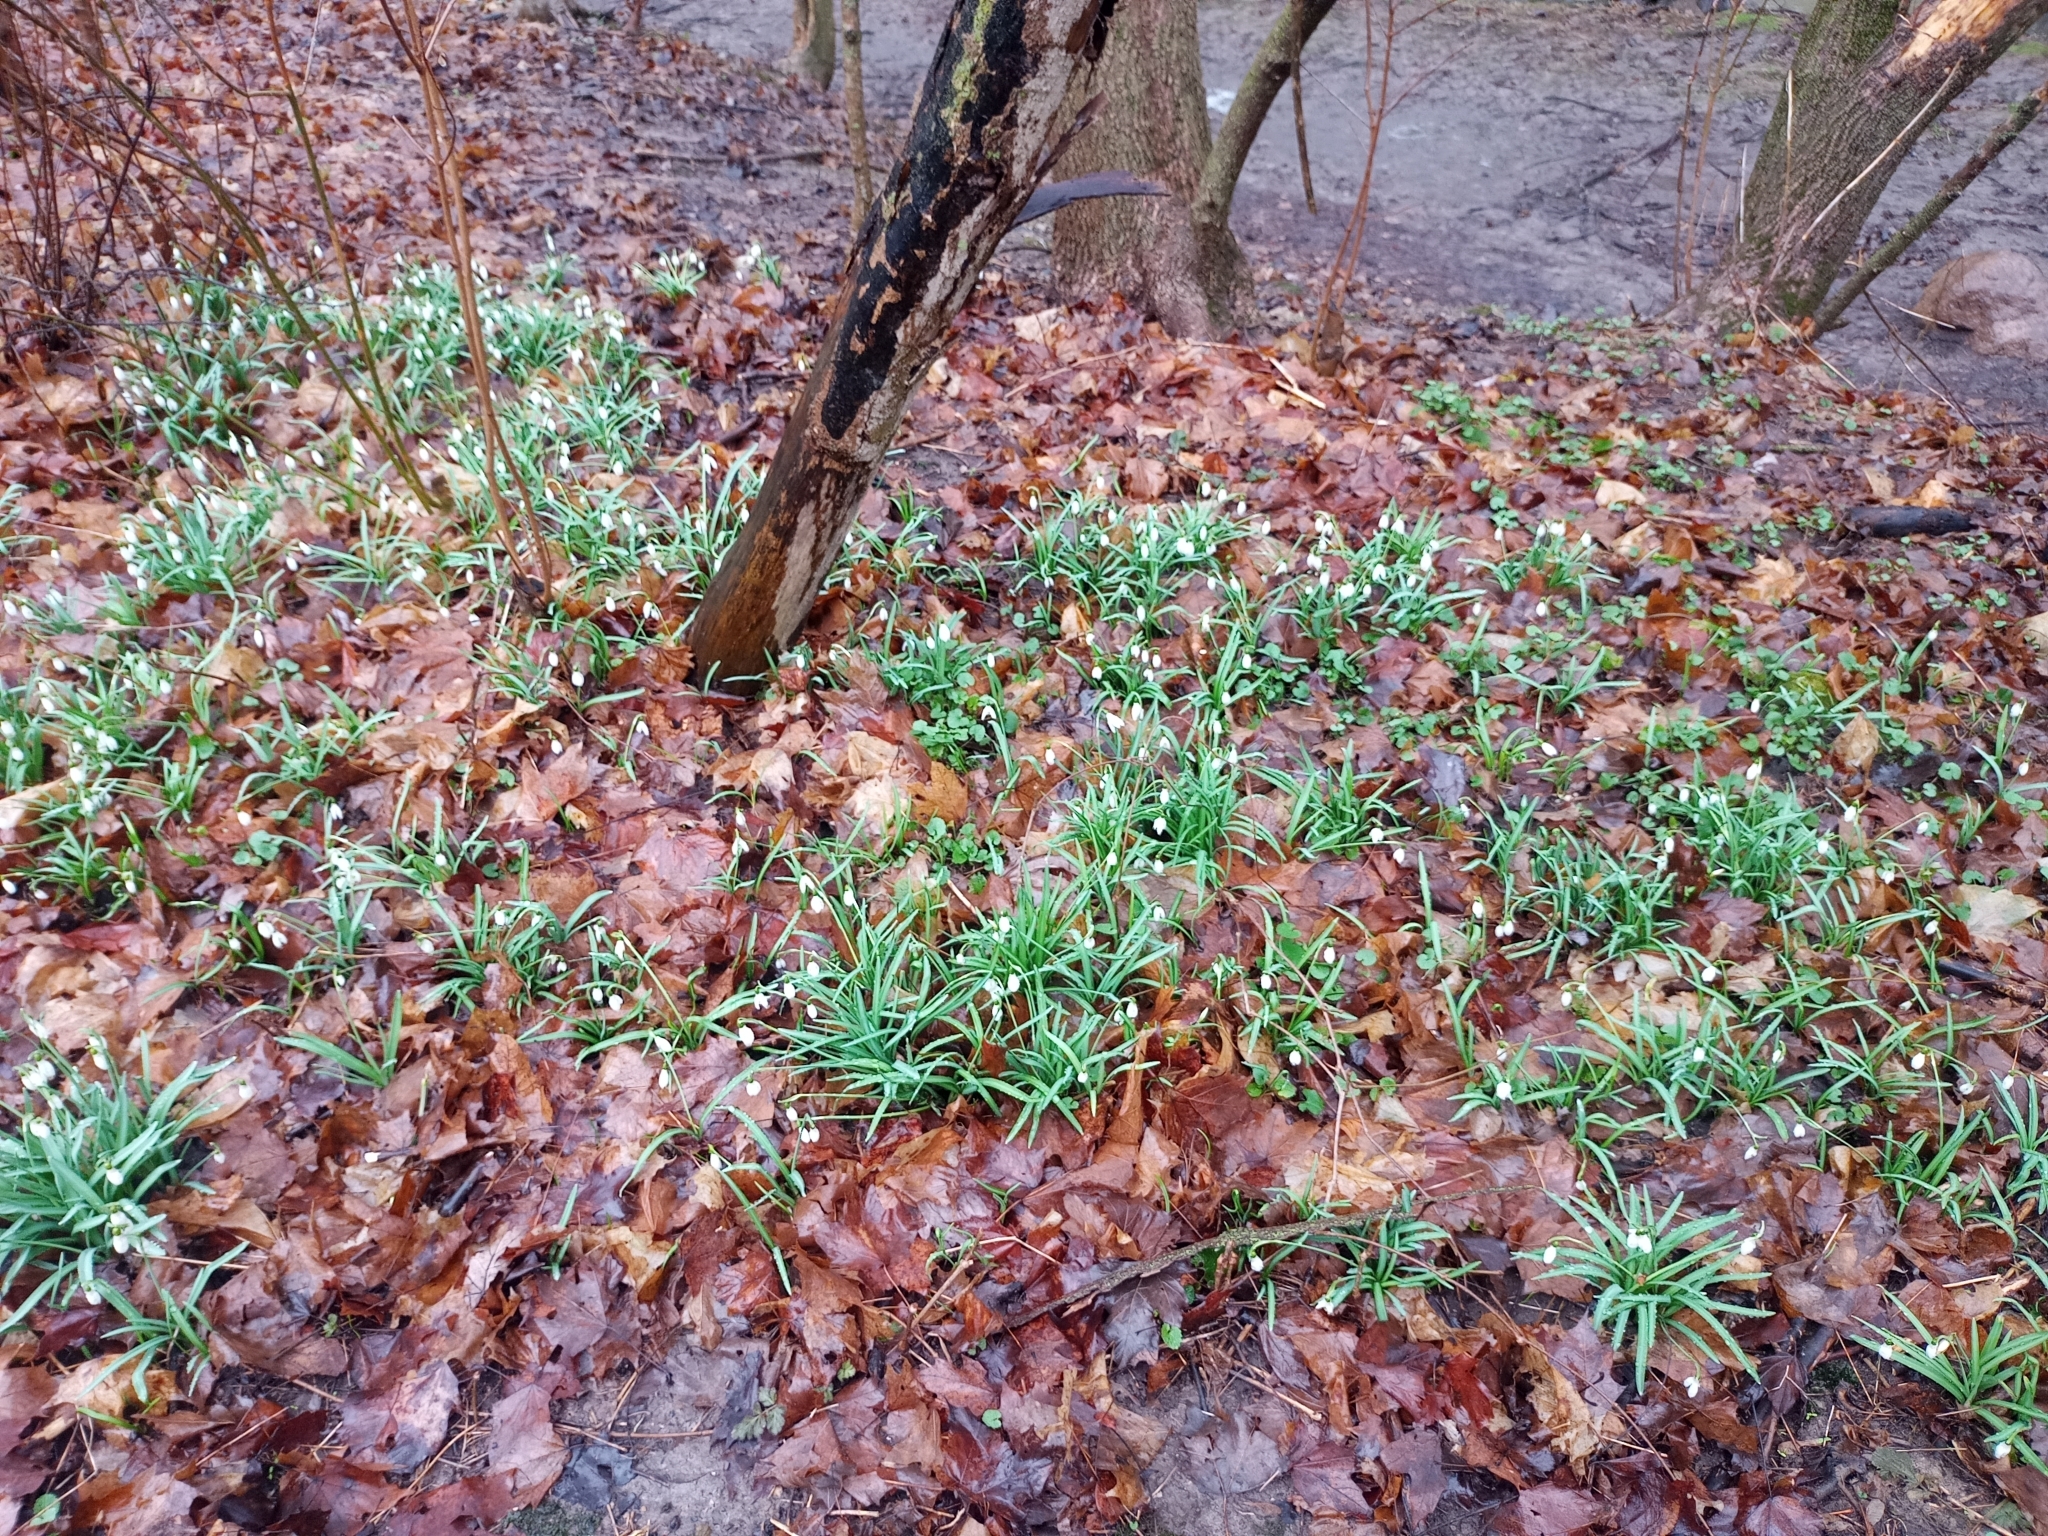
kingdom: Plantae
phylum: Tracheophyta
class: Liliopsida
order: Asparagales
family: Amaryllidaceae
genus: Galanthus
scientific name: Galanthus nivalis
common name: Snowdrop
